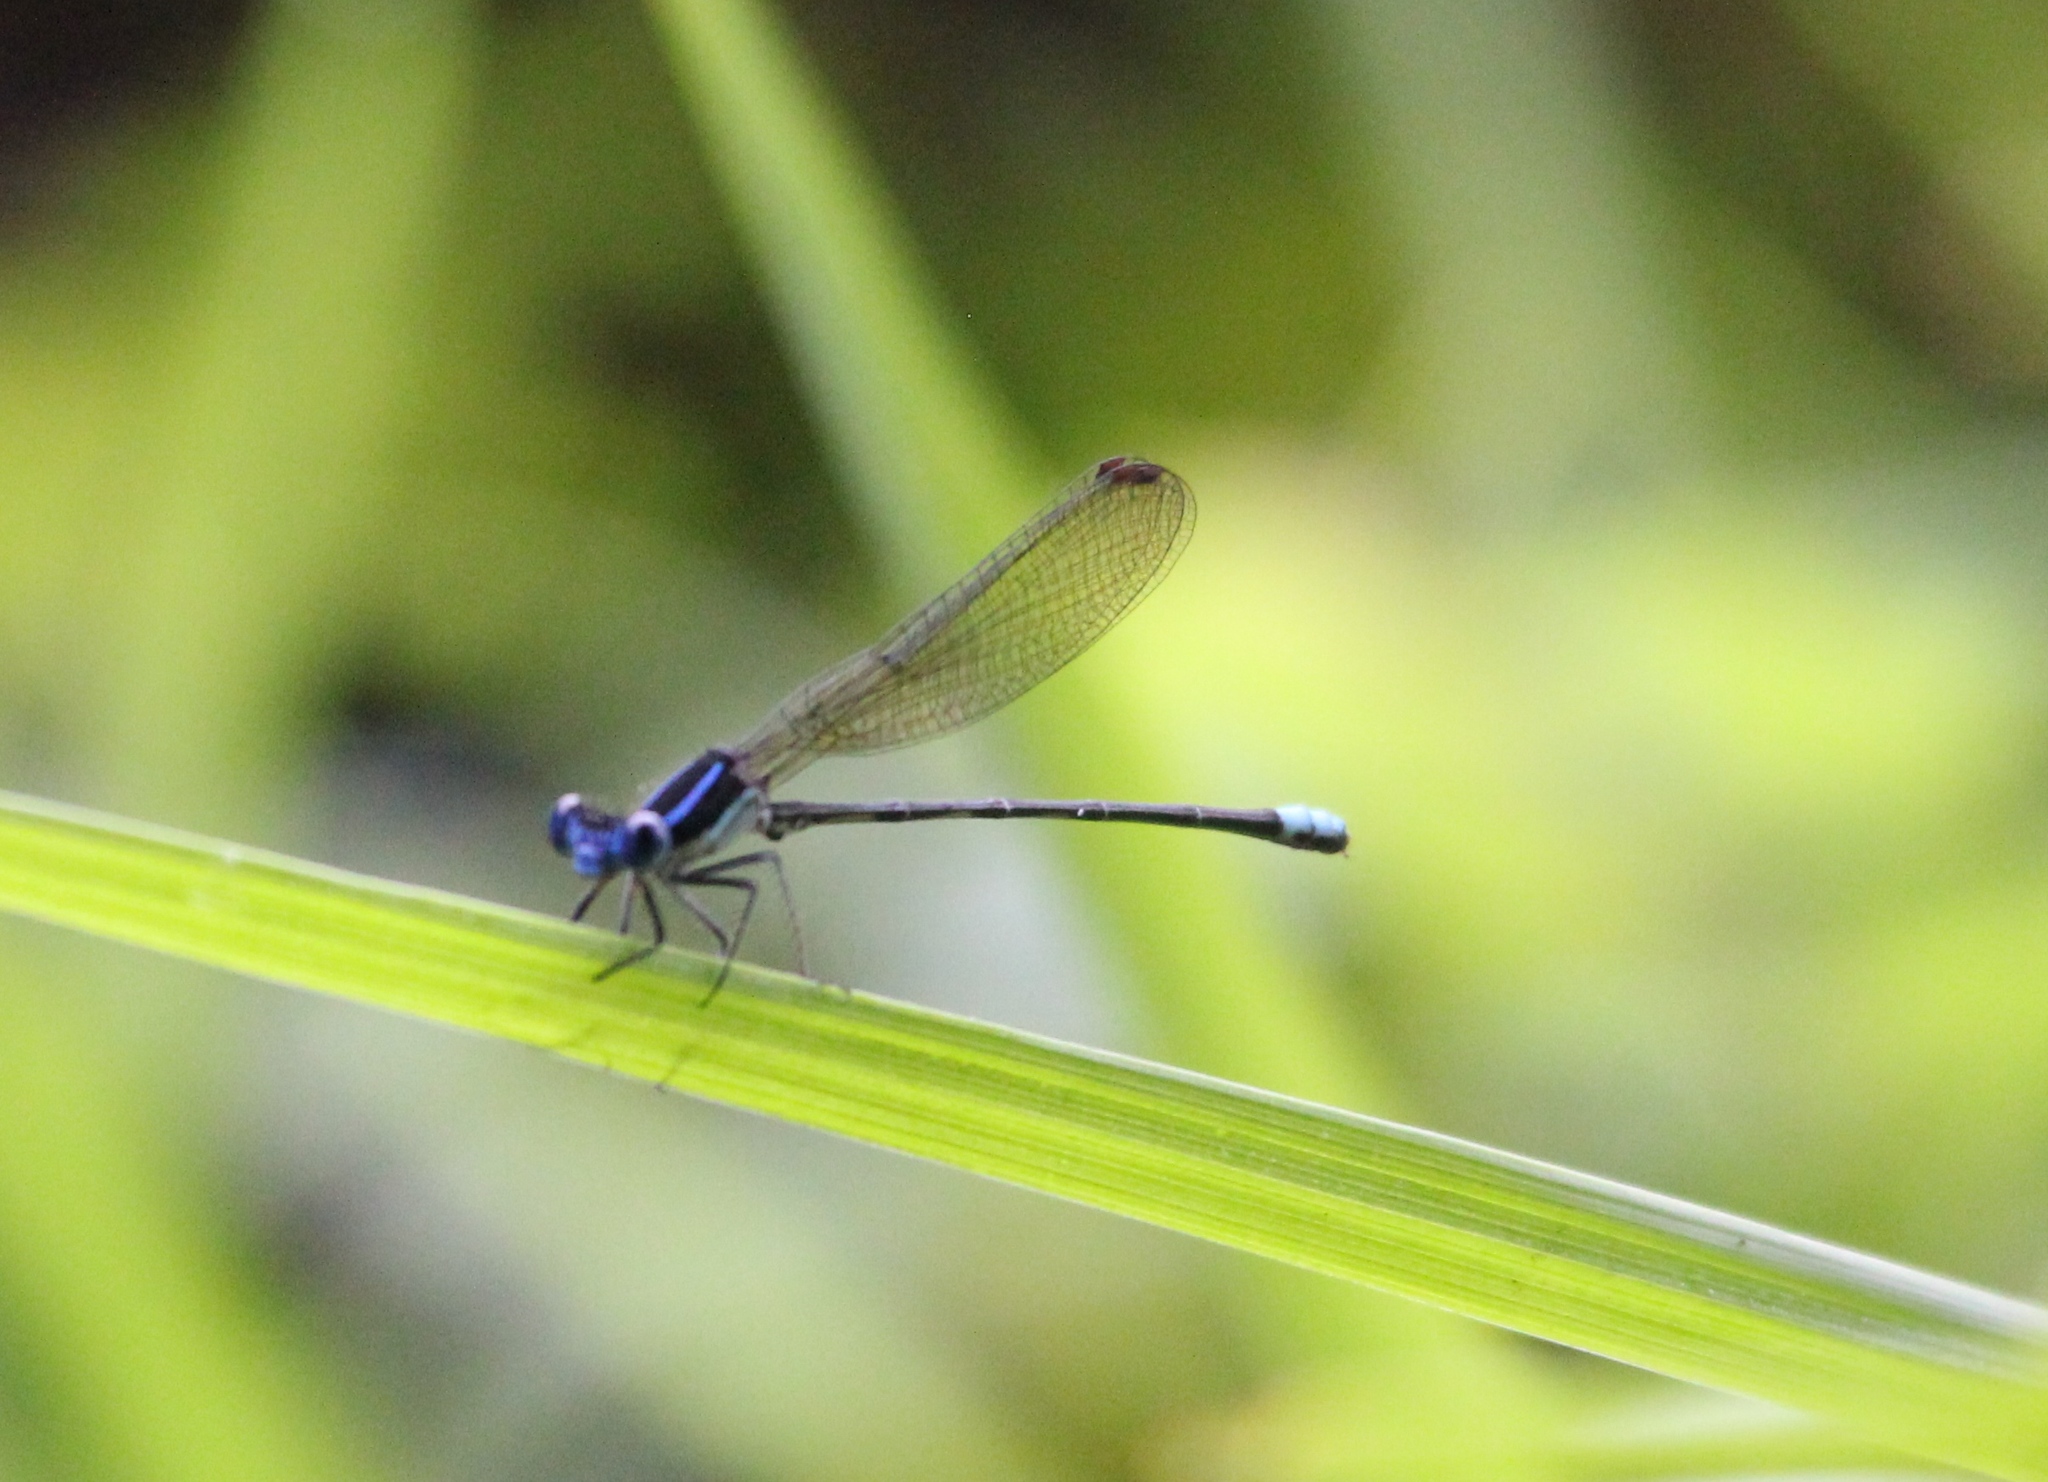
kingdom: Animalia
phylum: Arthropoda
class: Insecta
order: Odonata
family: Coenagrionidae
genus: Argia
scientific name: Argia sedula
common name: Blue-ringed dancer
